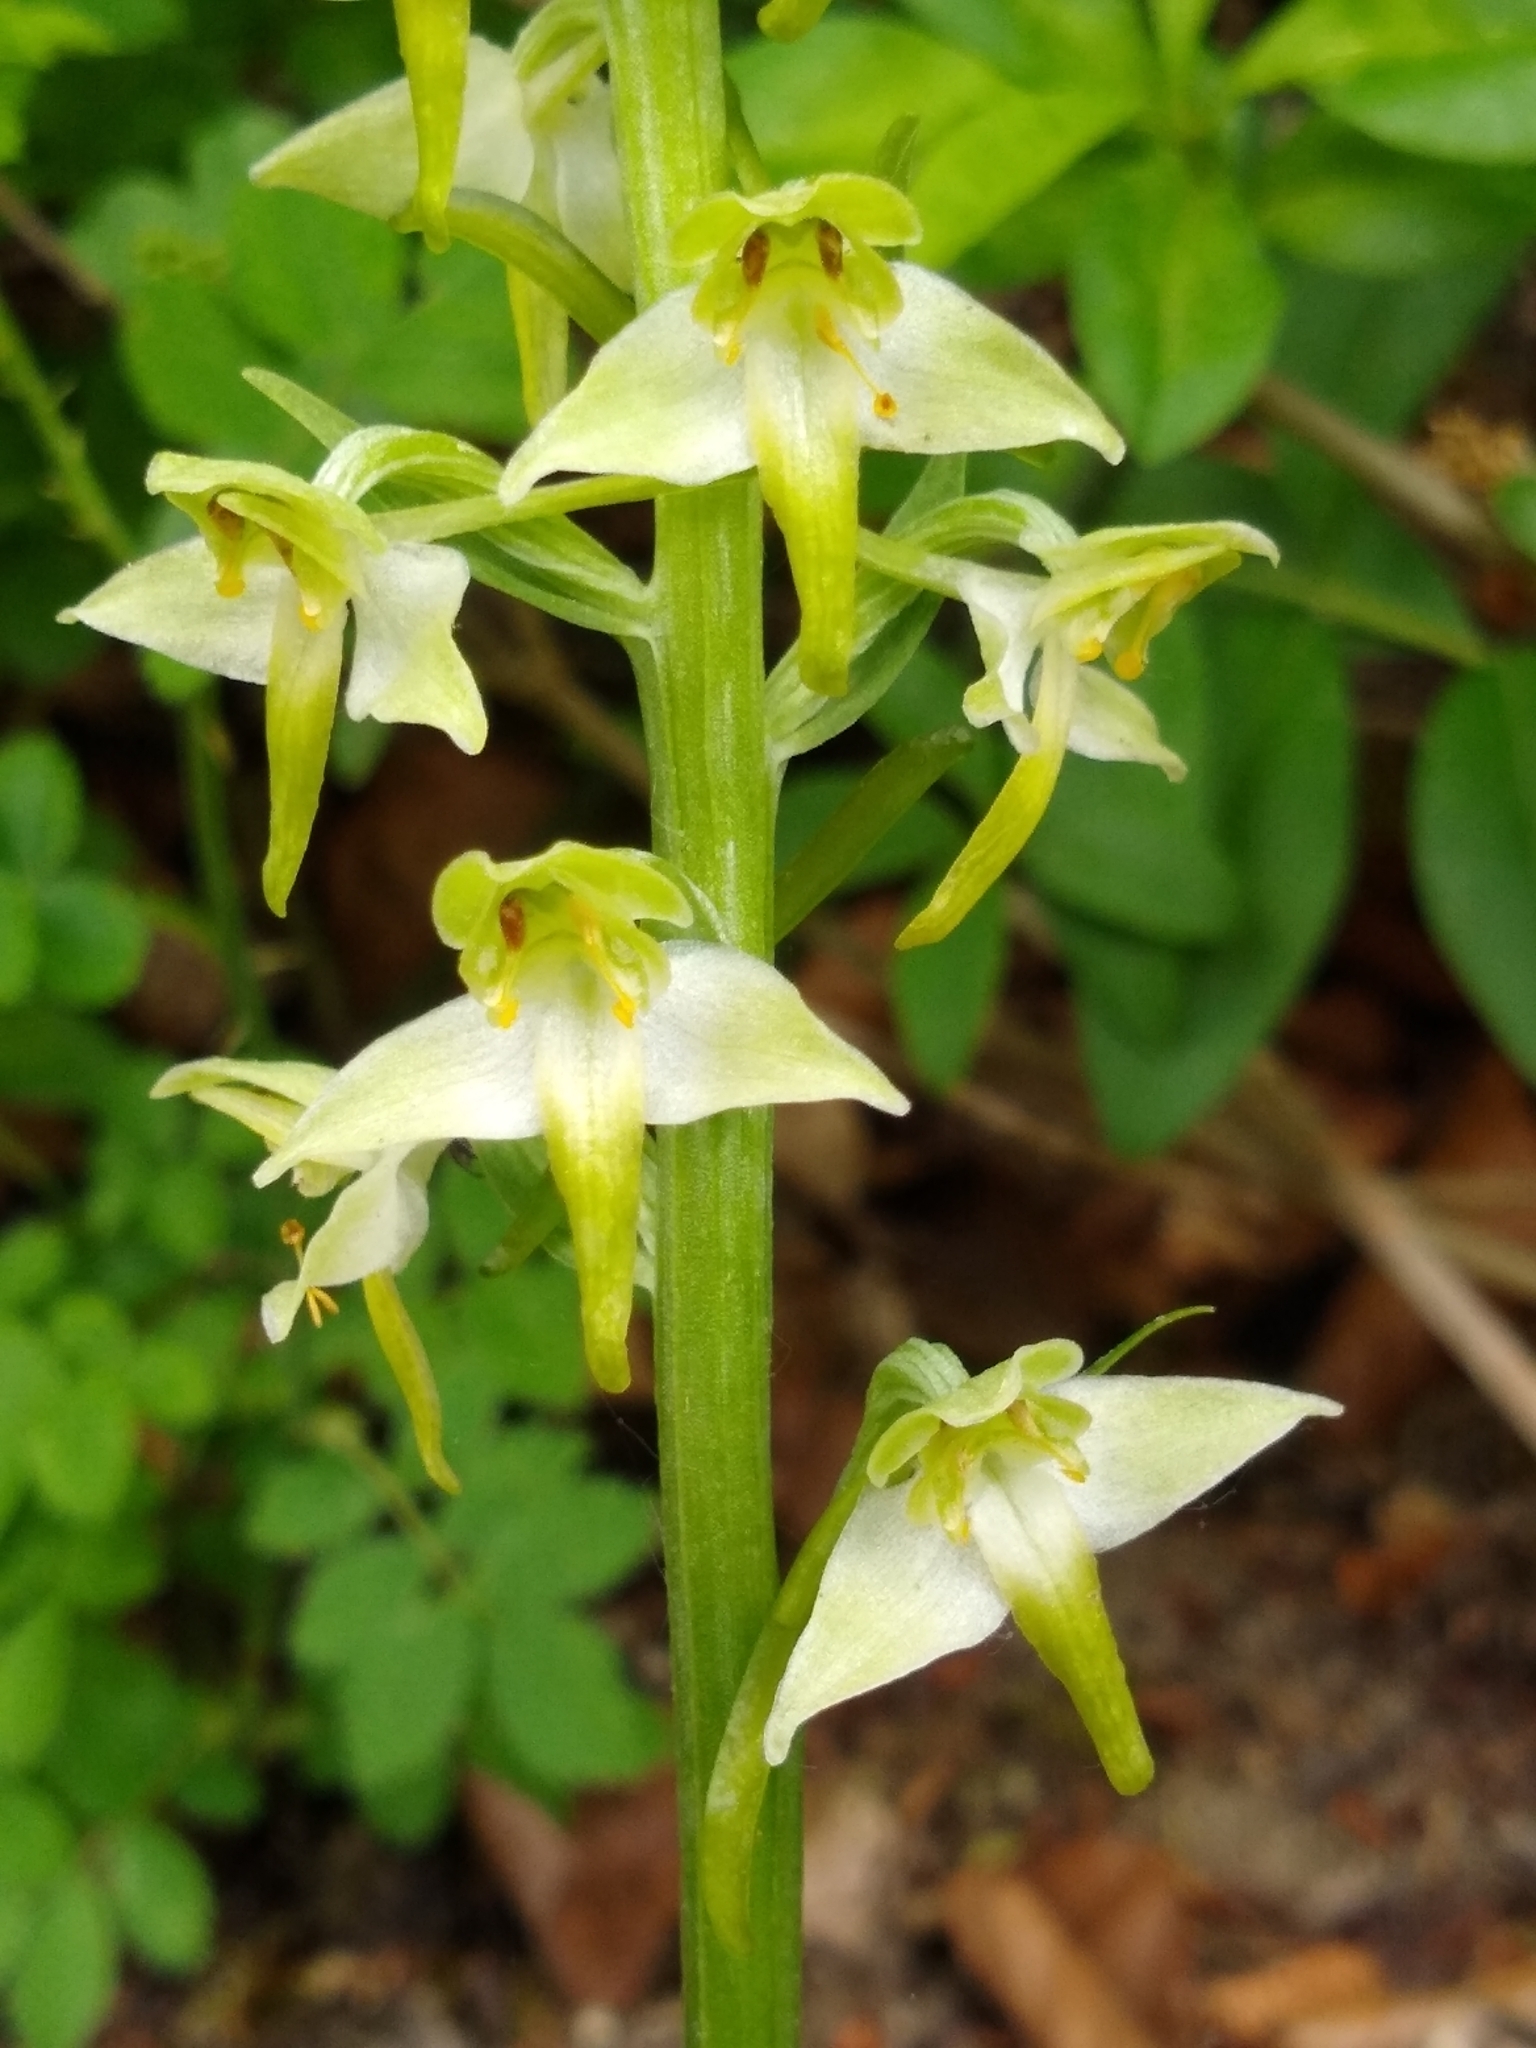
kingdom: Plantae
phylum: Tracheophyta
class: Liliopsida
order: Asparagales
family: Orchidaceae
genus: Platanthera
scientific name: Platanthera chlorantha
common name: Greater butterfly-orchid
